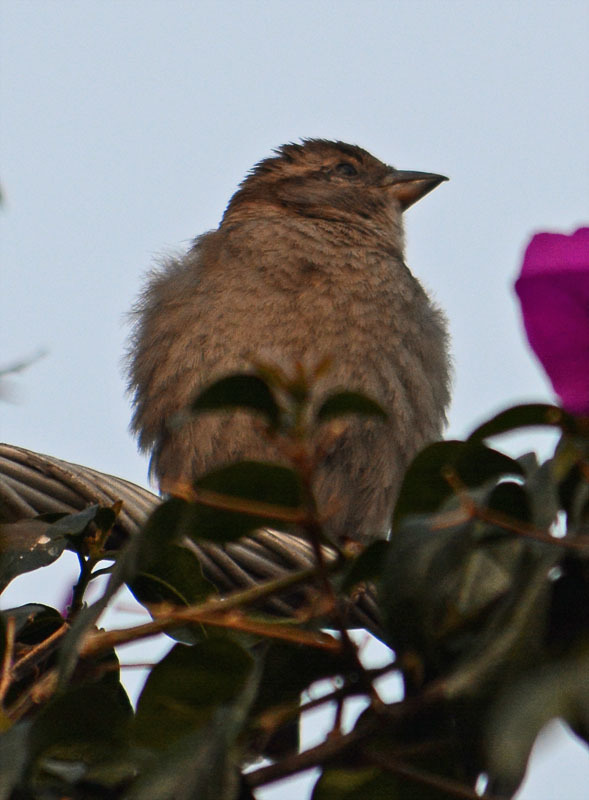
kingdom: Animalia
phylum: Chordata
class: Aves
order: Passeriformes
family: Passeridae
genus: Passer
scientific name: Passer domesticus
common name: House sparrow
